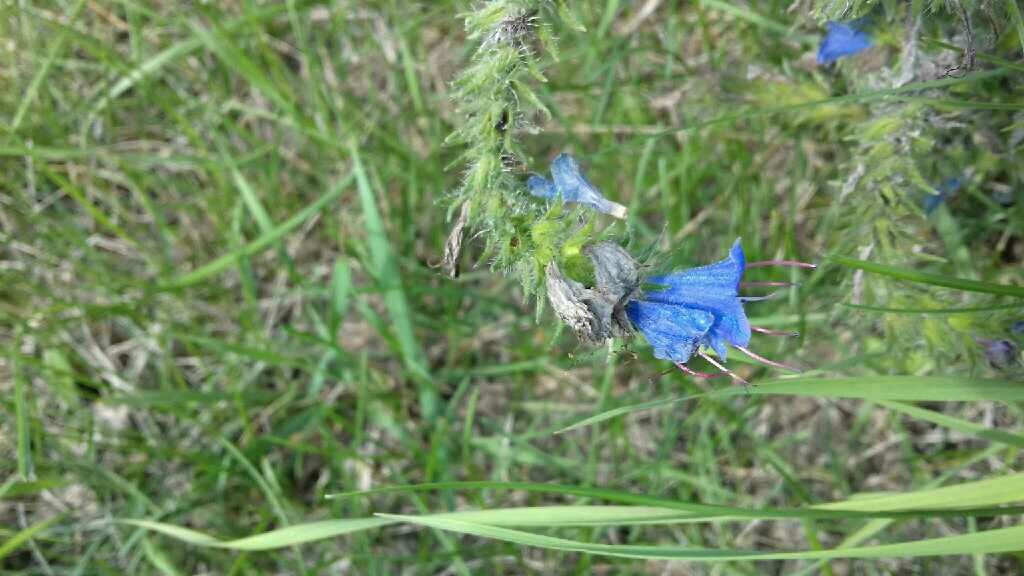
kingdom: Plantae
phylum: Tracheophyta
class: Magnoliopsida
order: Boraginales
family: Boraginaceae
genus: Echium
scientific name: Echium vulgare
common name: Common viper's bugloss
